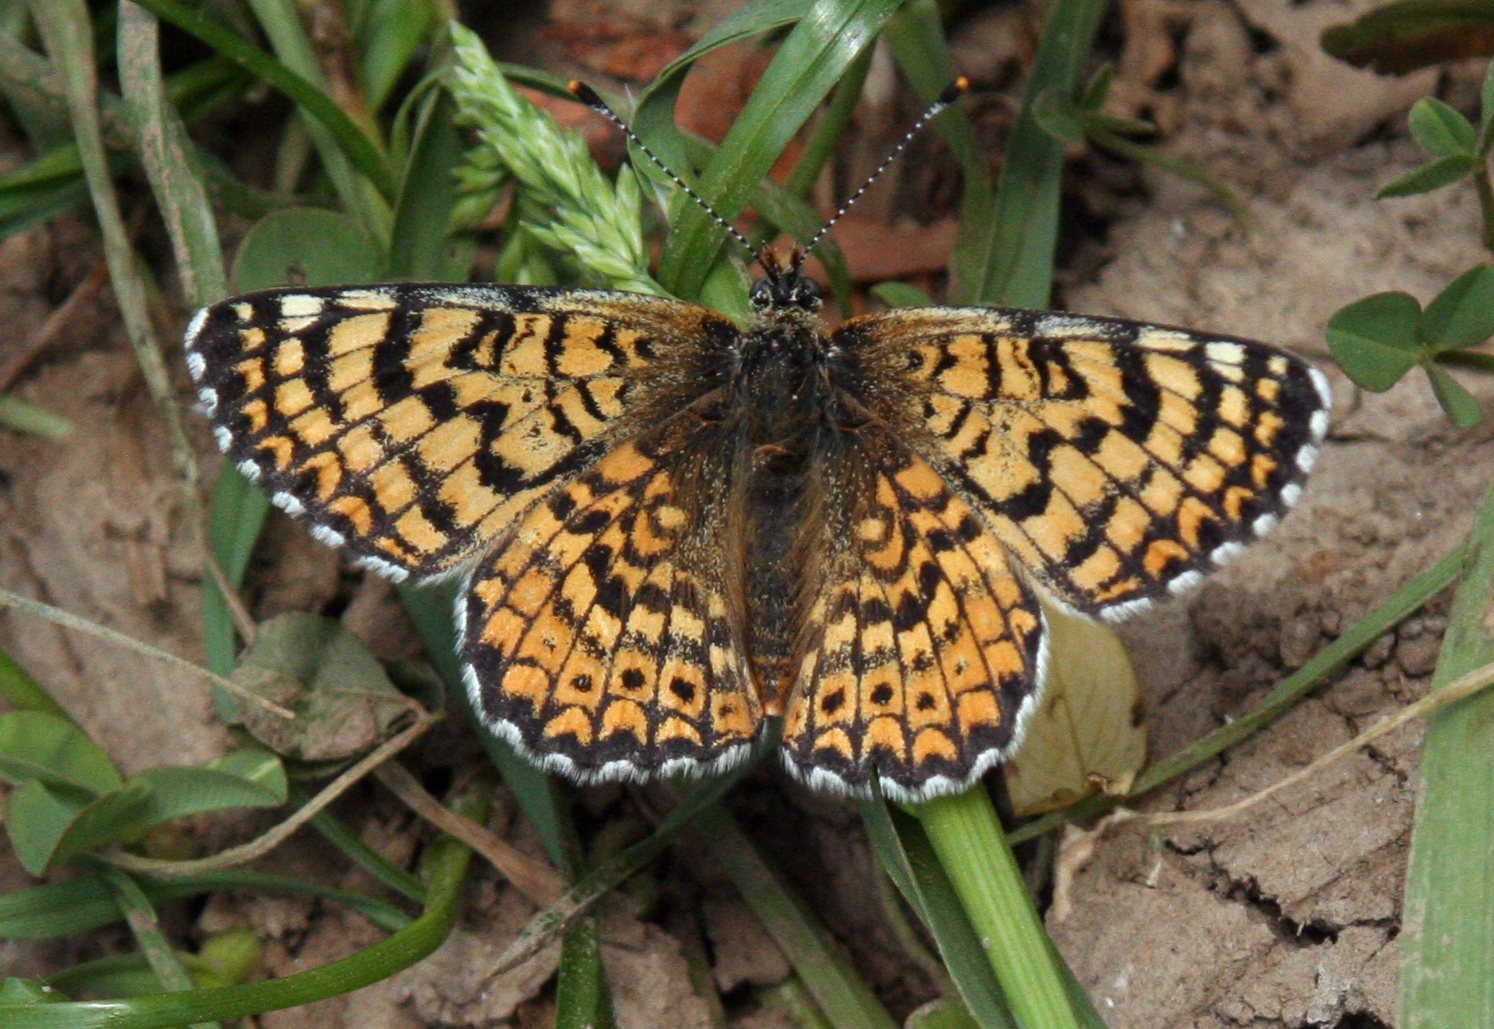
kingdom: Animalia
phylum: Arthropoda
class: Insecta
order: Lepidoptera
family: Nymphalidae
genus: Melitaea
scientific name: Melitaea cinxia
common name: Glanville fritillary
